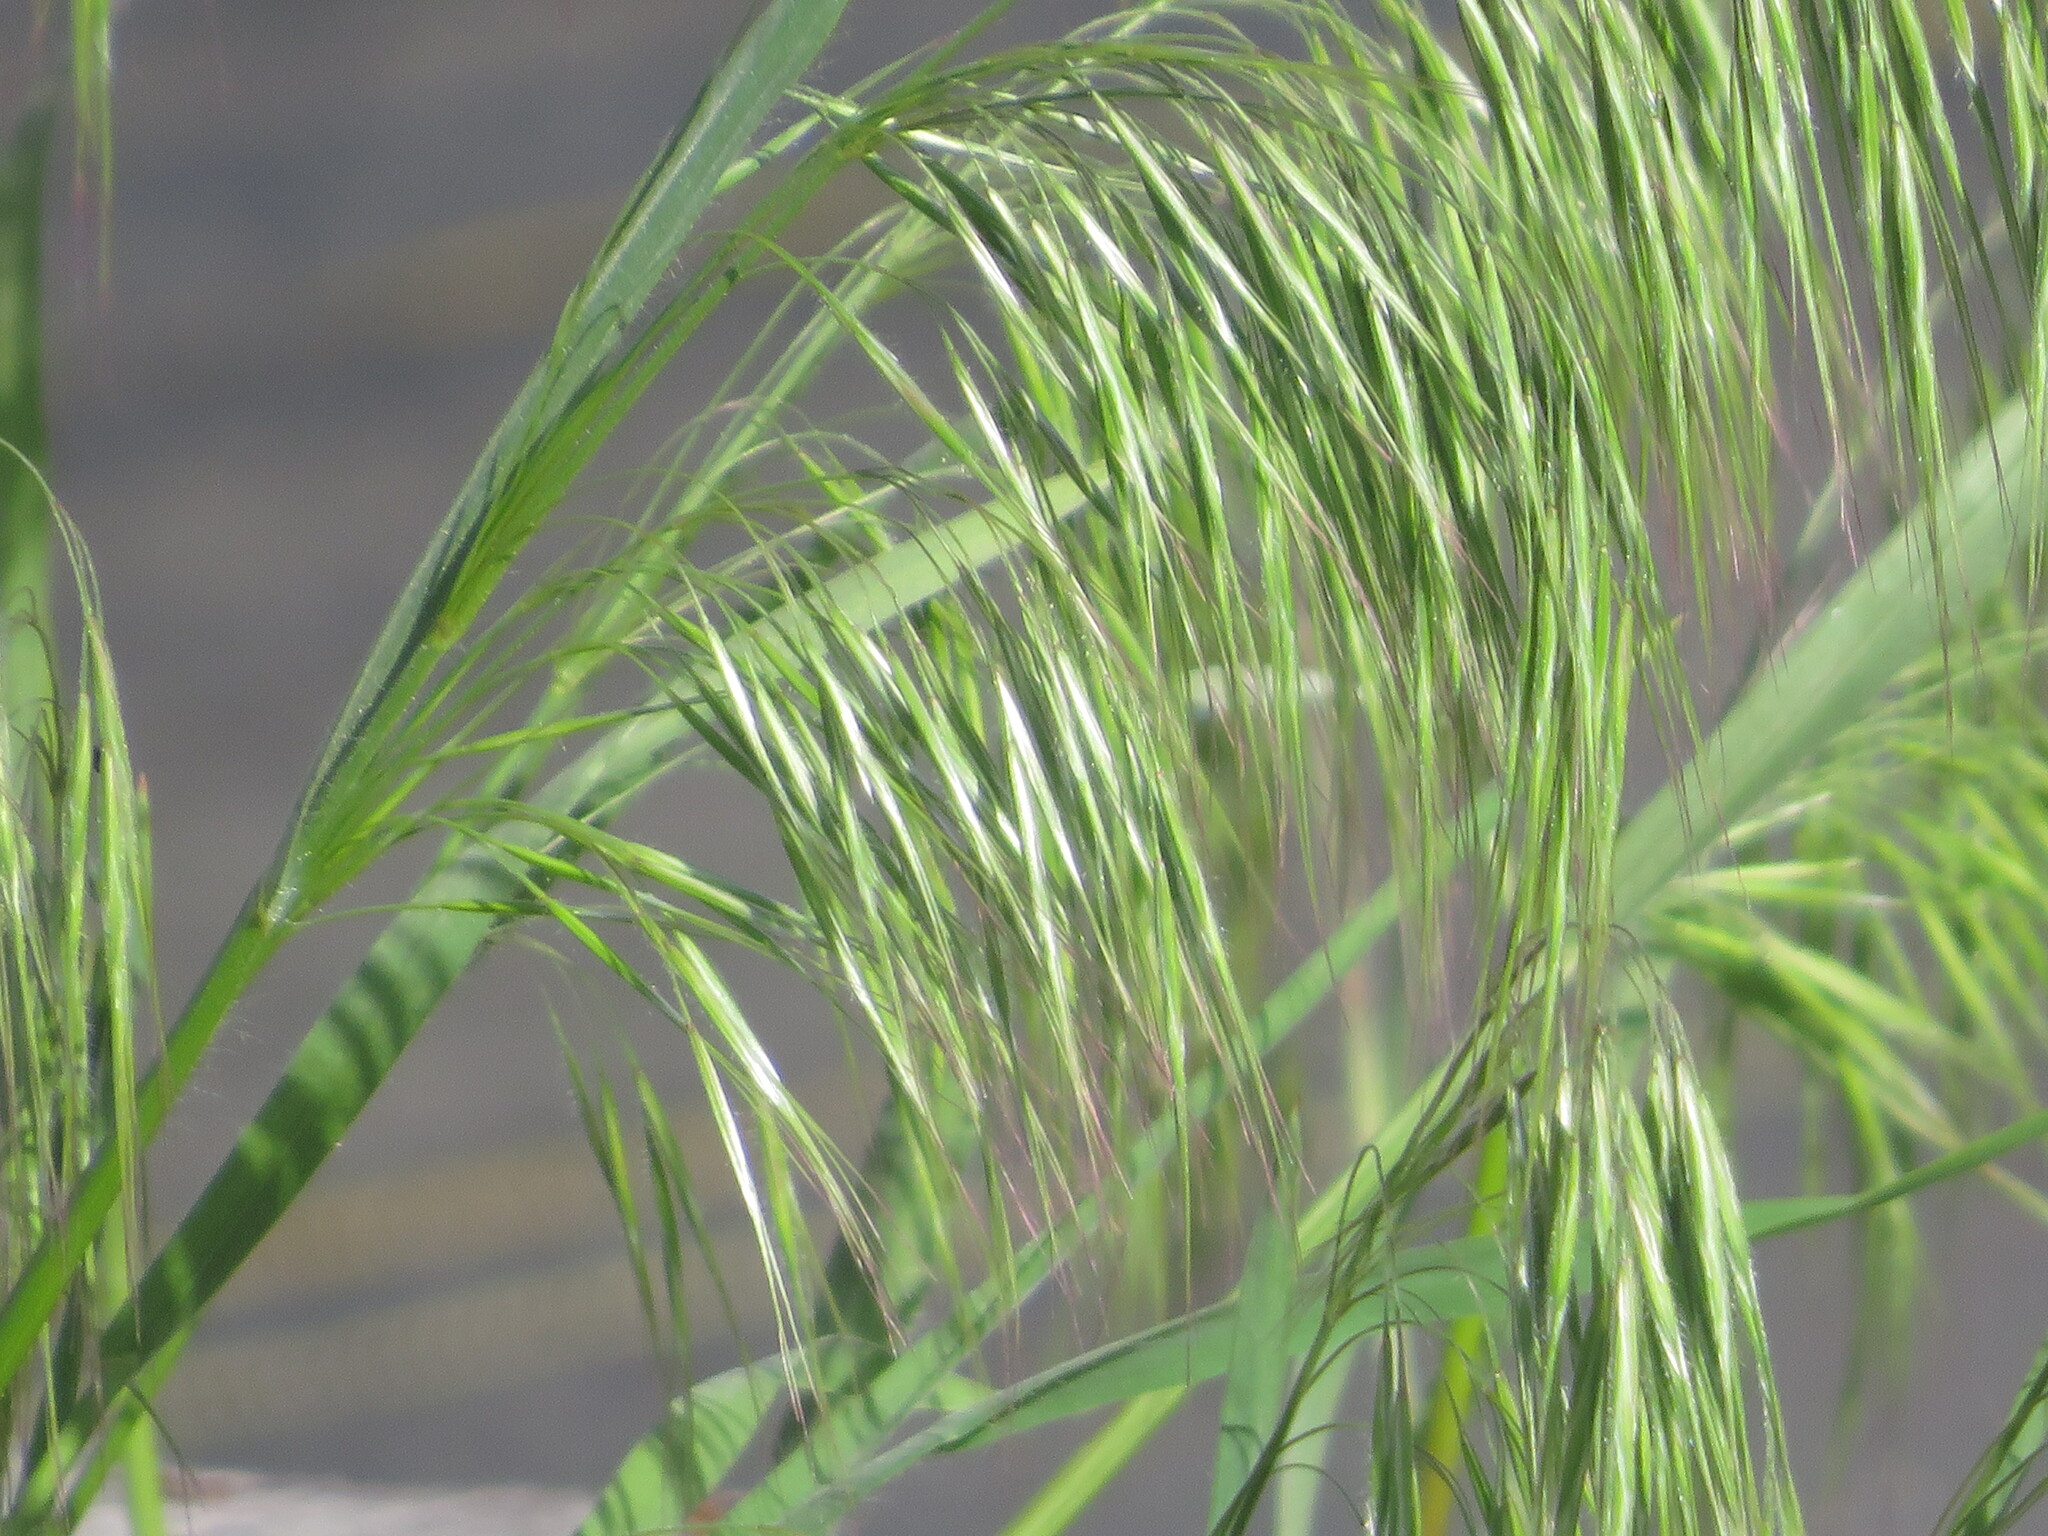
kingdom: Plantae
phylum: Tracheophyta
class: Liliopsida
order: Poales
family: Poaceae
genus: Bromus
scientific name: Bromus tectorum
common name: Cheatgrass
